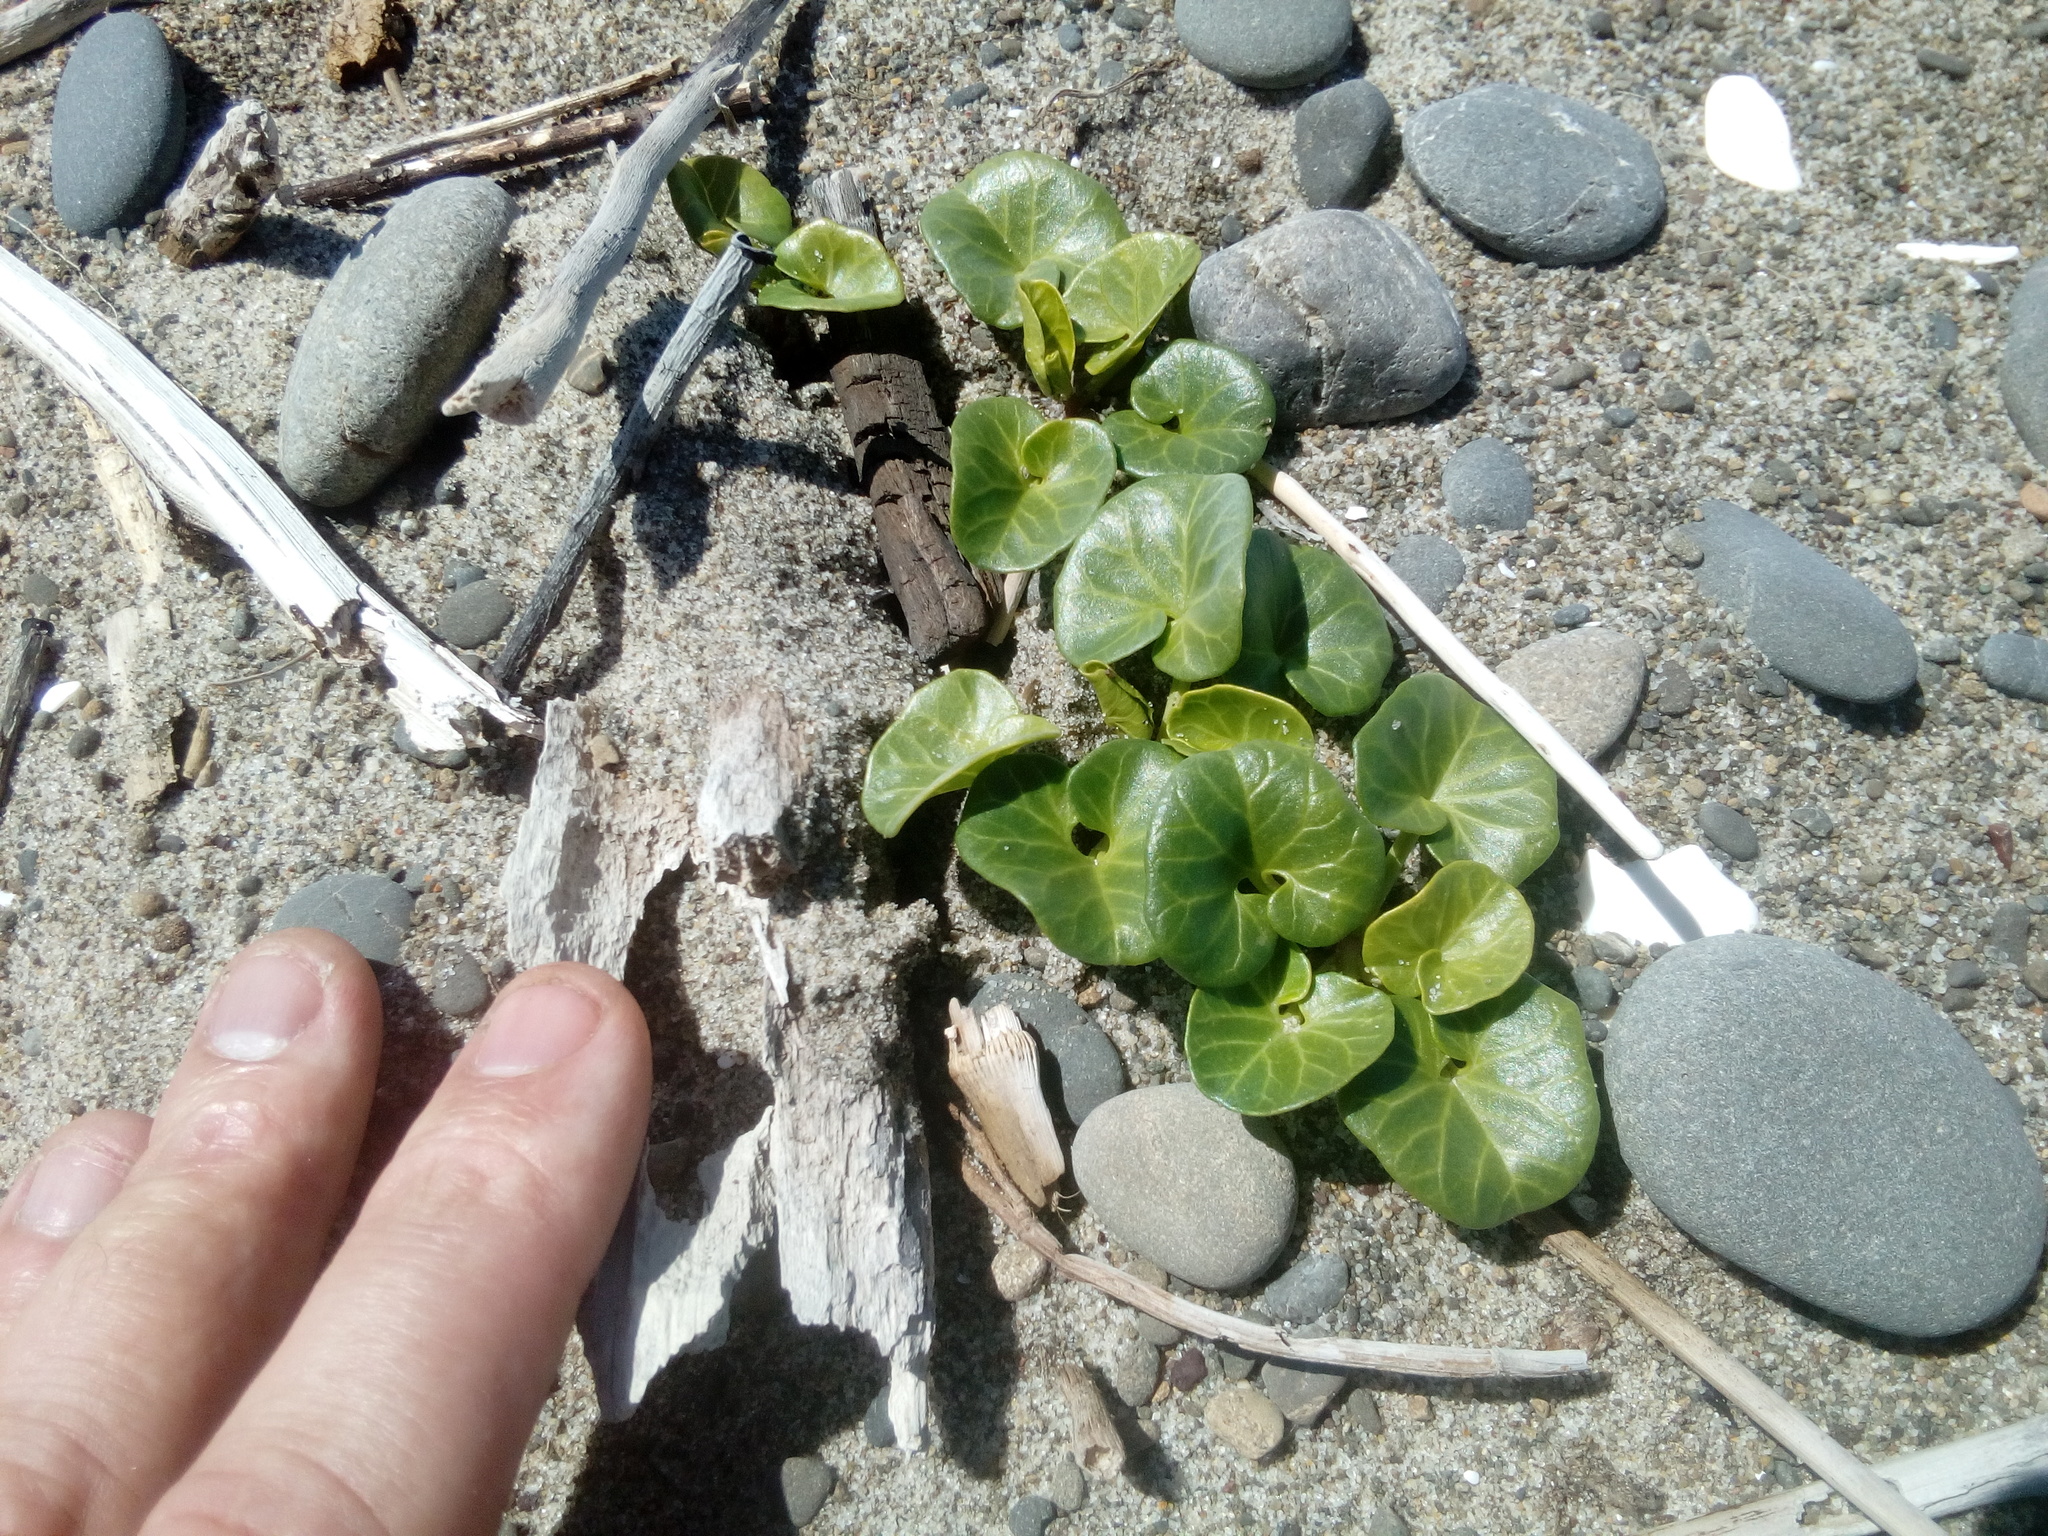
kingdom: Plantae
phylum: Tracheophyta
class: Magnoliopsida
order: Solanales
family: Convolvulaceae
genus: Calystegia
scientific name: Calystegia soldanella
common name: Sea bindweed
